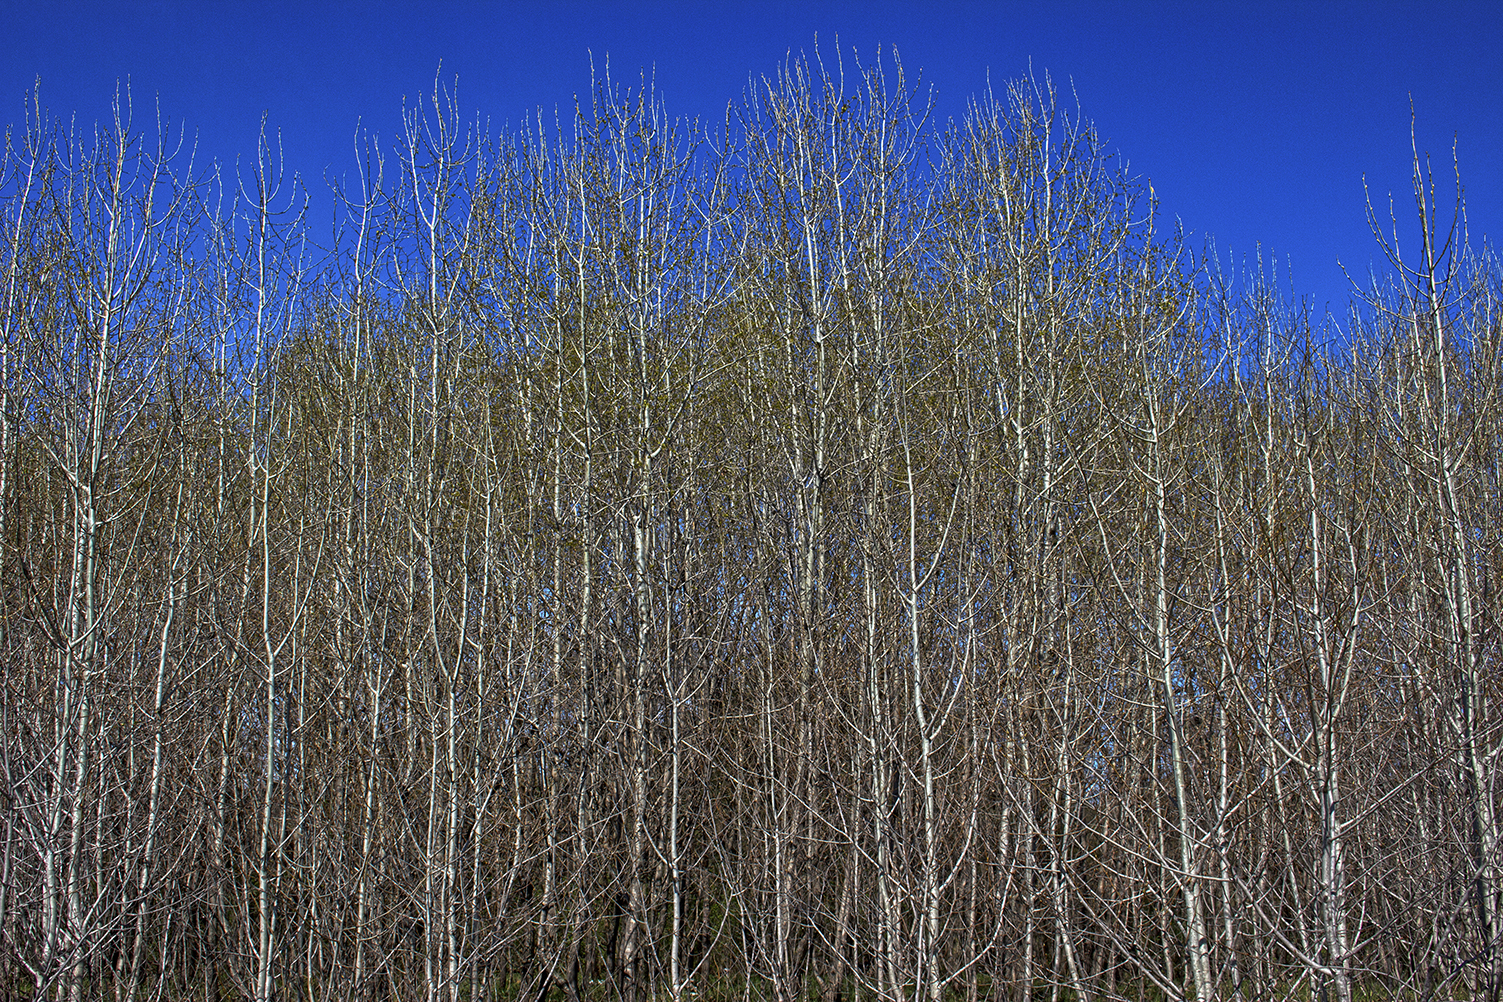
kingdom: Plantae
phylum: Tracheophyta
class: Magnoliopsida
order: Malpighiales
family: Salicaceae
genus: Populus
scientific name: Populus tremuloides
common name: Quaking aspen
